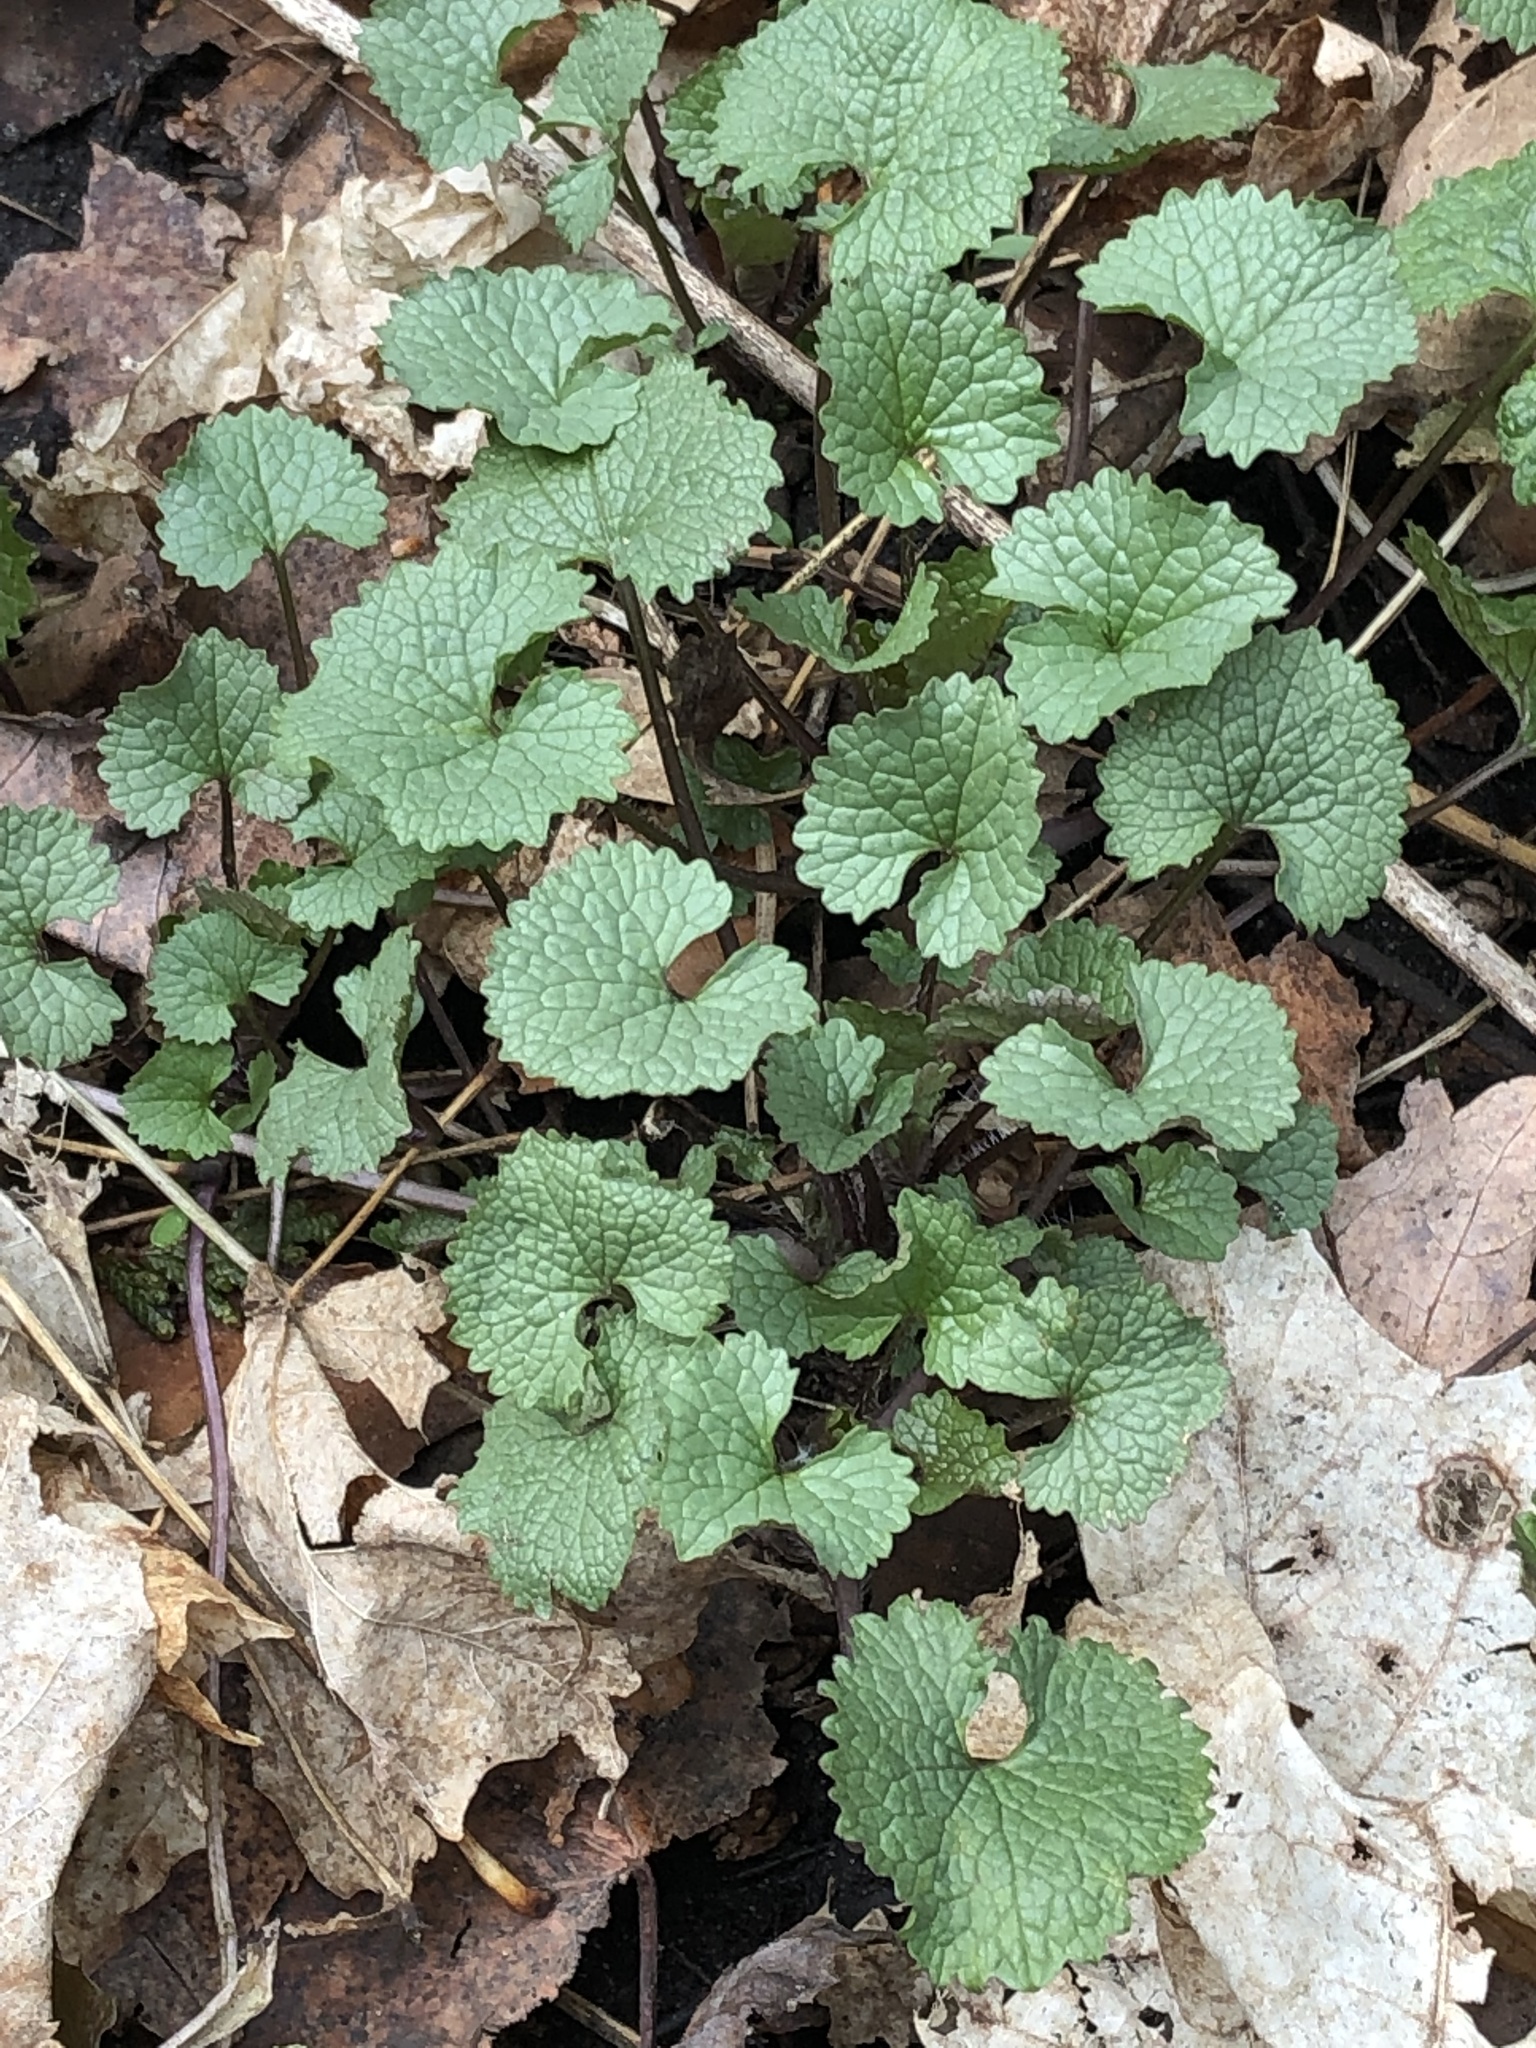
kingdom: Plantae
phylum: Tracheophyta
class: Magnoliopsida
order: Brassicales
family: Brassicaceae
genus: Alliaria
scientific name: Alliaria petiolata
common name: Garlic mustard
